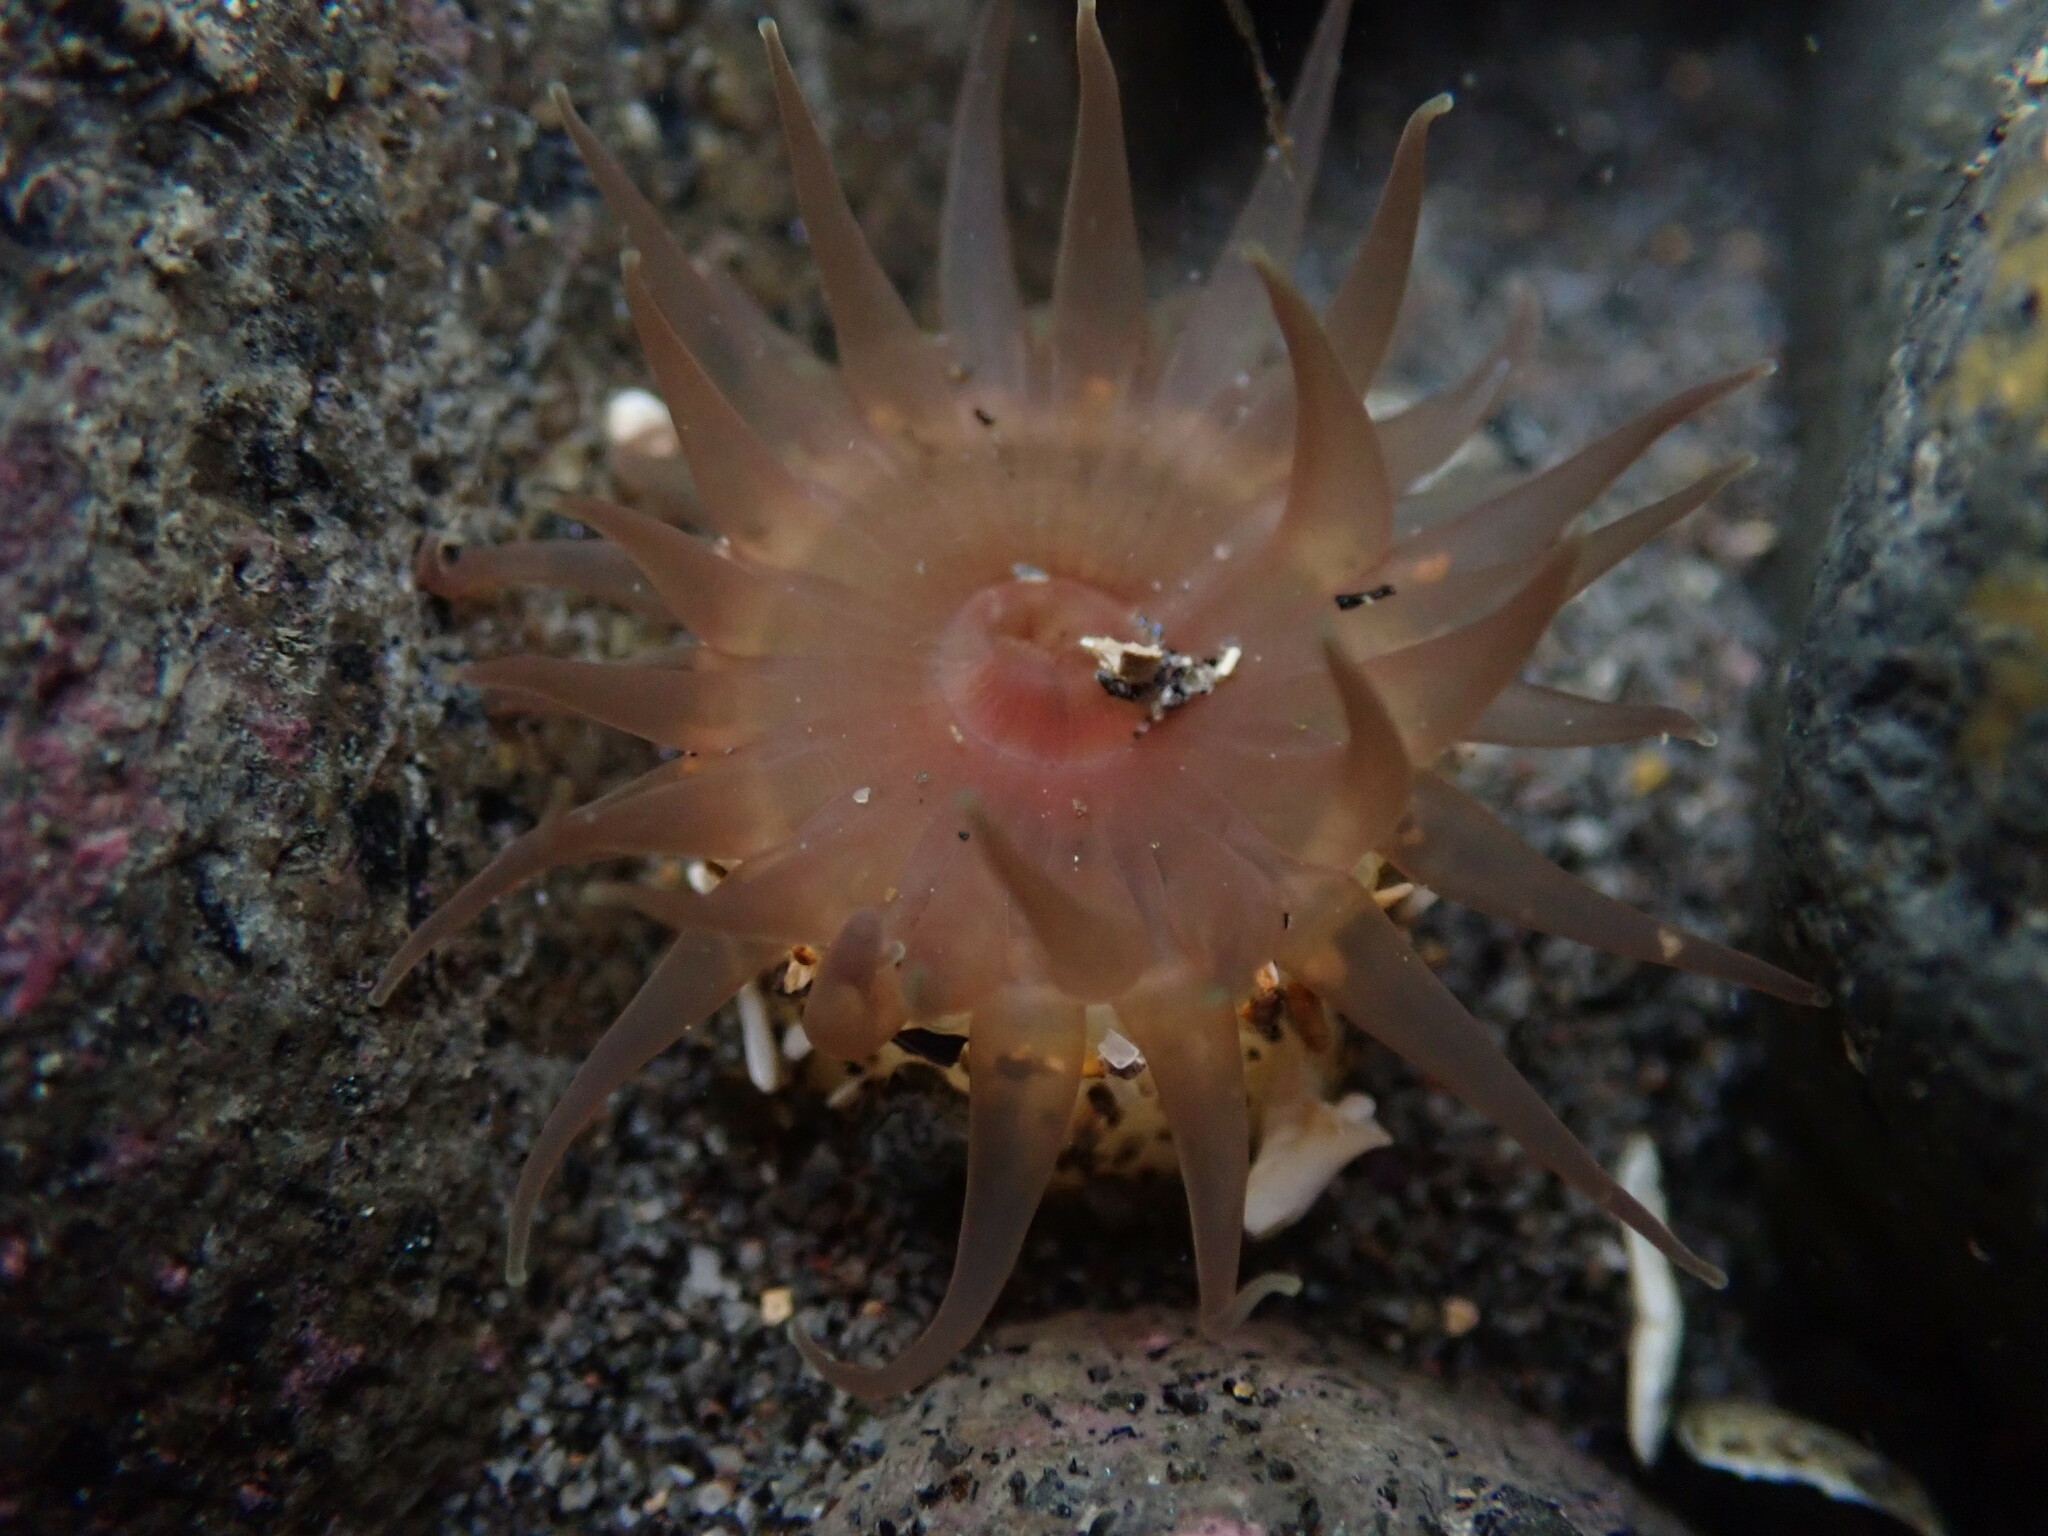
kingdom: Animalia
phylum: Cnidaria
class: Anthozoa
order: Actiniaria
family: Actiniidae
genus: Isactinia
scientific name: Isactinia olivacea
